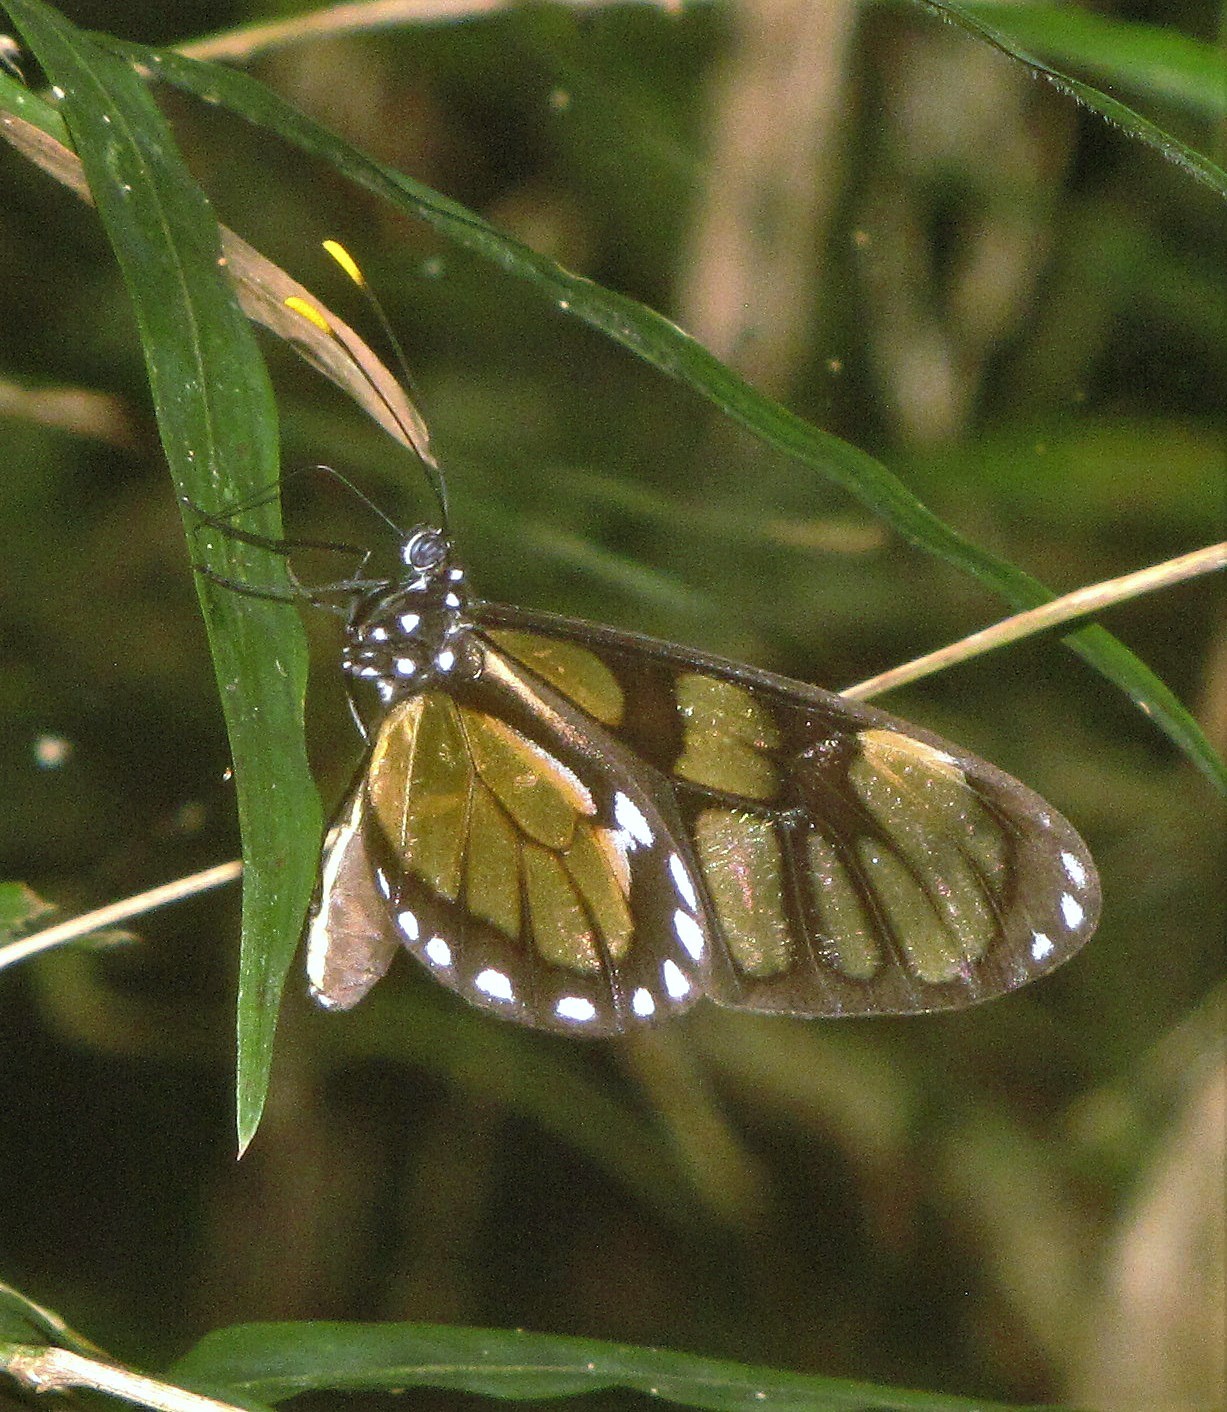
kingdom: Animalia
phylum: Arthropoda
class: Insecta
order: Lepidoptera
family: Nymphalidae
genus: Dircenna
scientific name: Dircenna dero
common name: Dero clearwing
